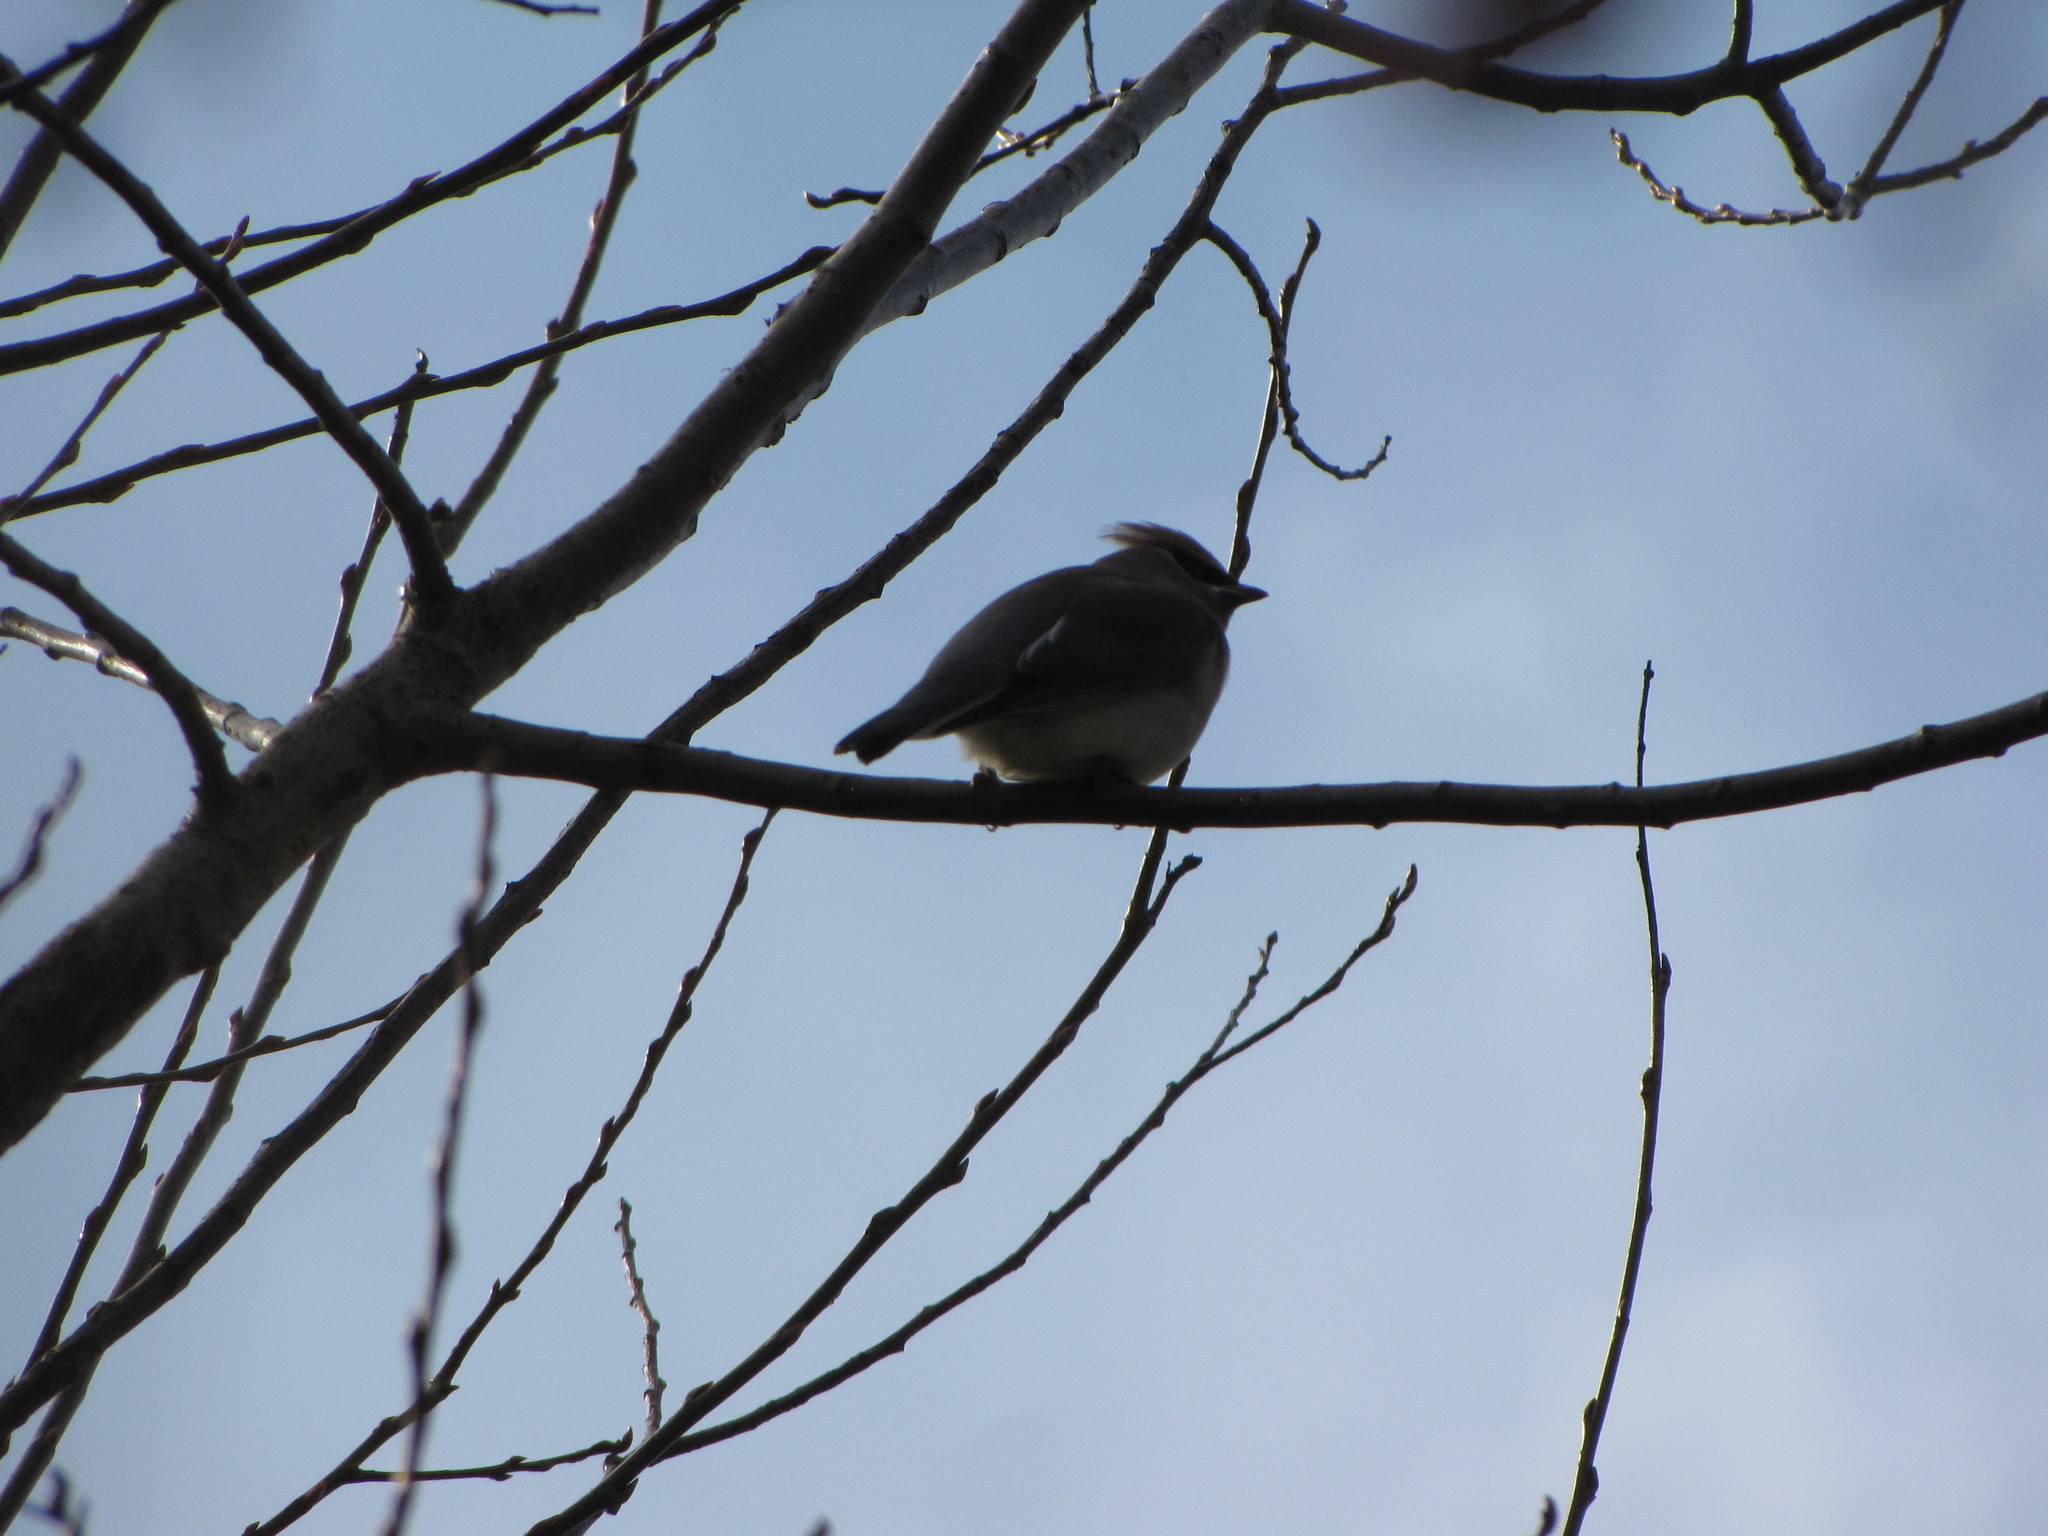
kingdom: Animalia
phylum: Chordata
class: Aves
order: Passeriformes
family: Bombycillidae
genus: Bombycilla
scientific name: Bombycilla cedrorum
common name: Cedar waxwing
